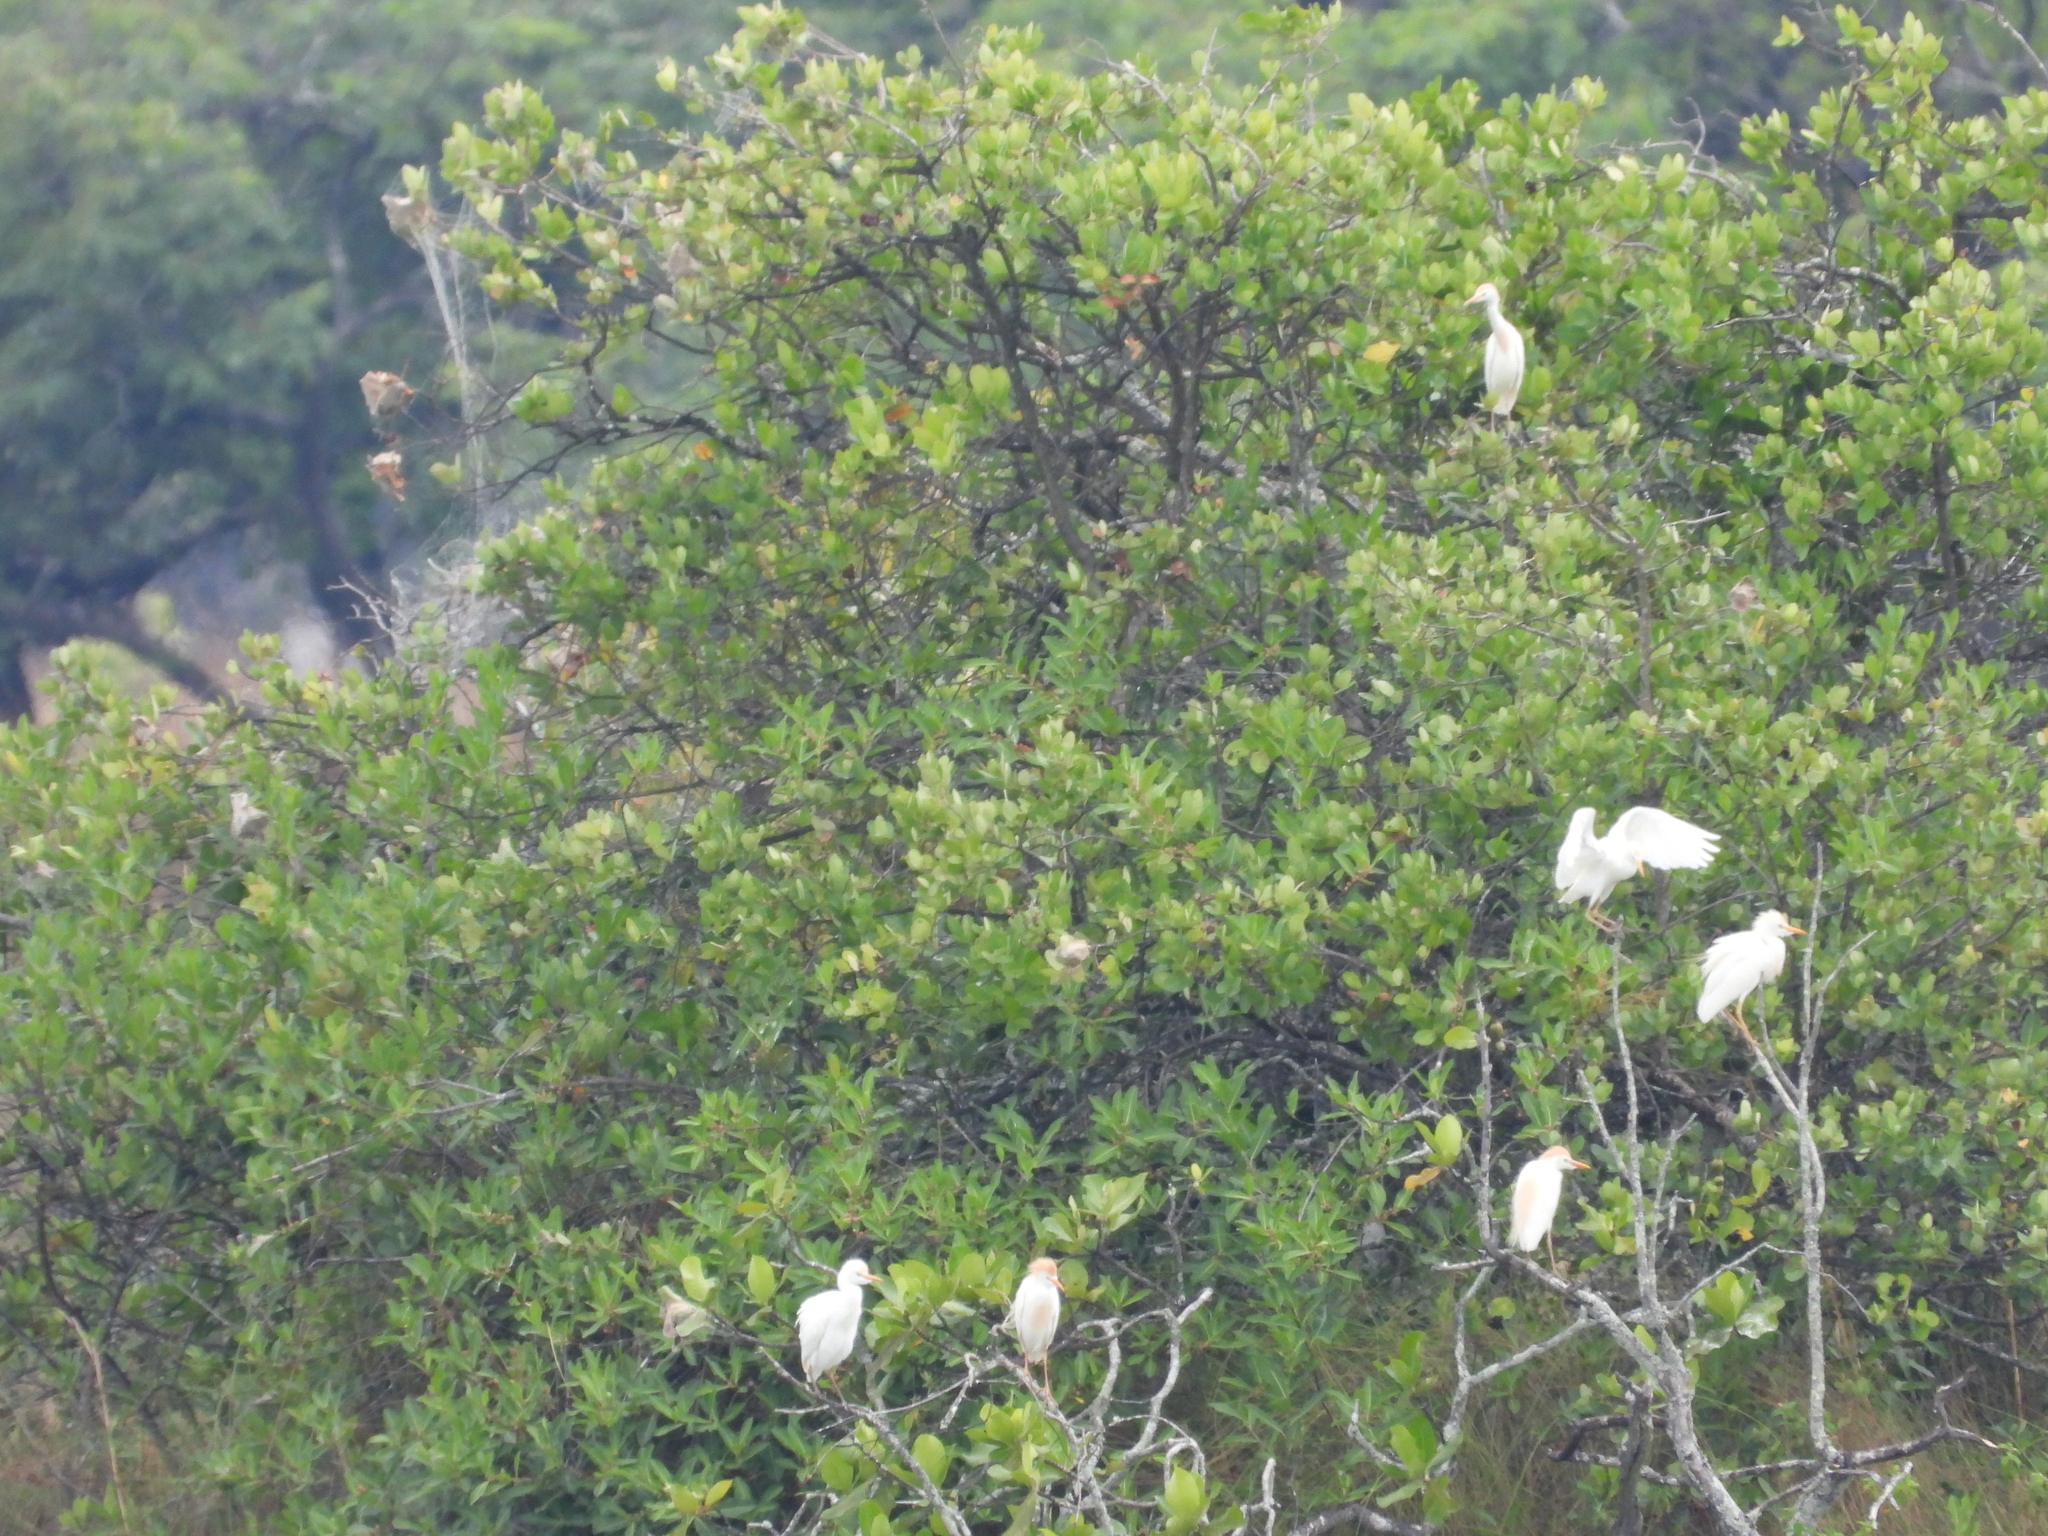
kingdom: Animalia
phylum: Chordata
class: Aves
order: Pelecaniformes
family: Ardeidae
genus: Bubulcus
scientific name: Bubulcus ibis
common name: Cattle egret
